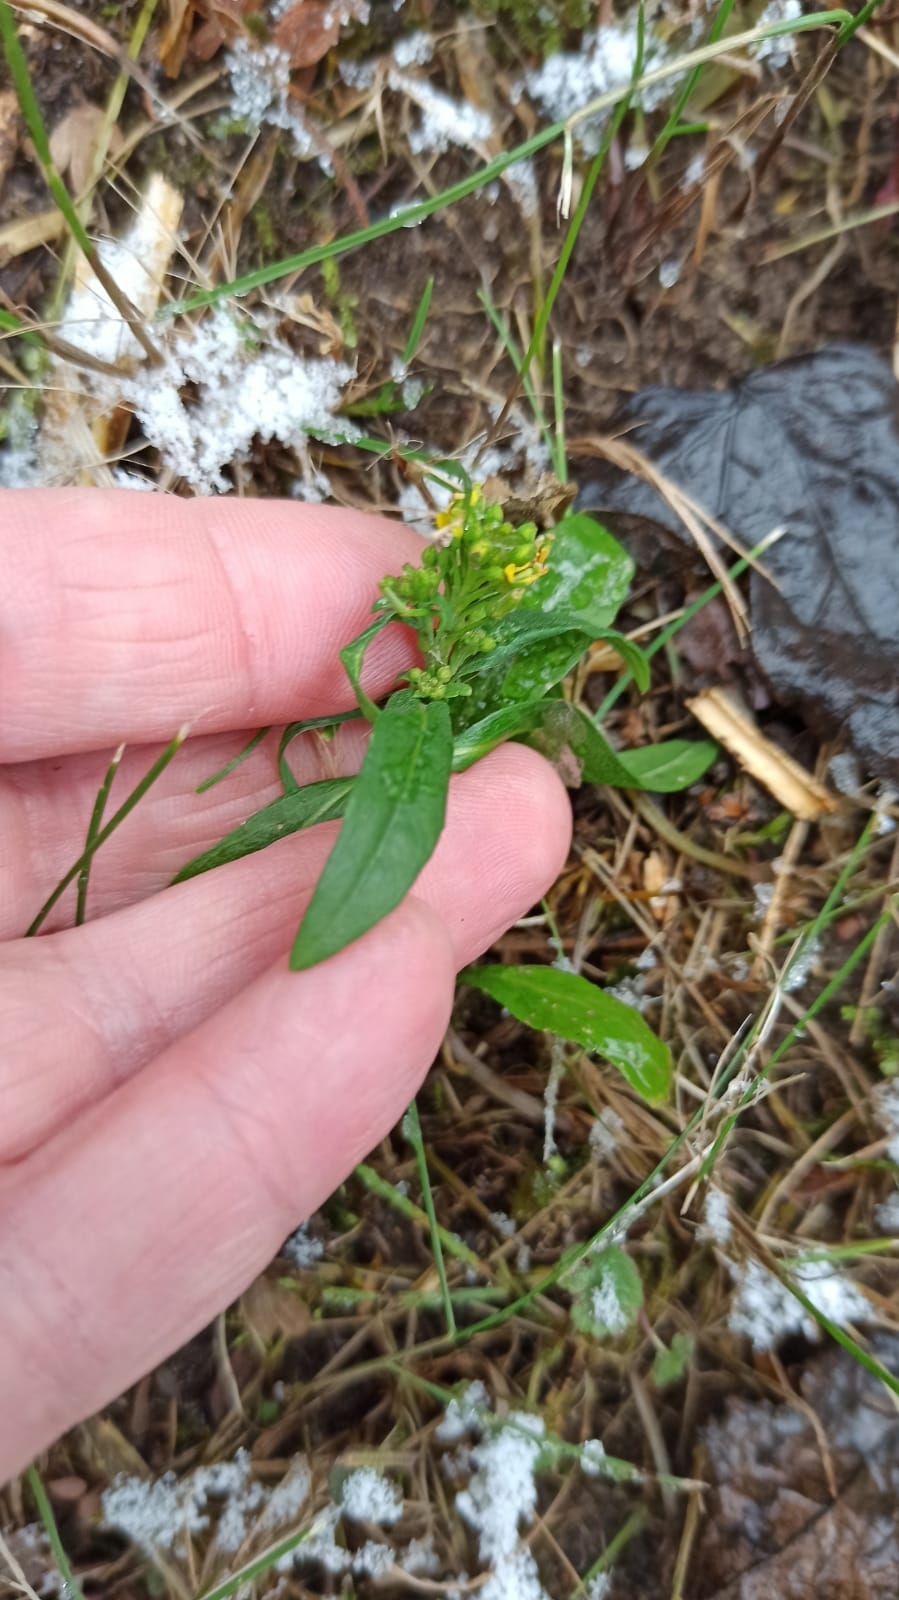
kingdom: Plantae
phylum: Tracheophyta
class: Magnoliopsida
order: Brassicales
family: Brassicaceae
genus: Erysimum
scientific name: Erysimum cheiranthoides
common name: Treacle mustard
